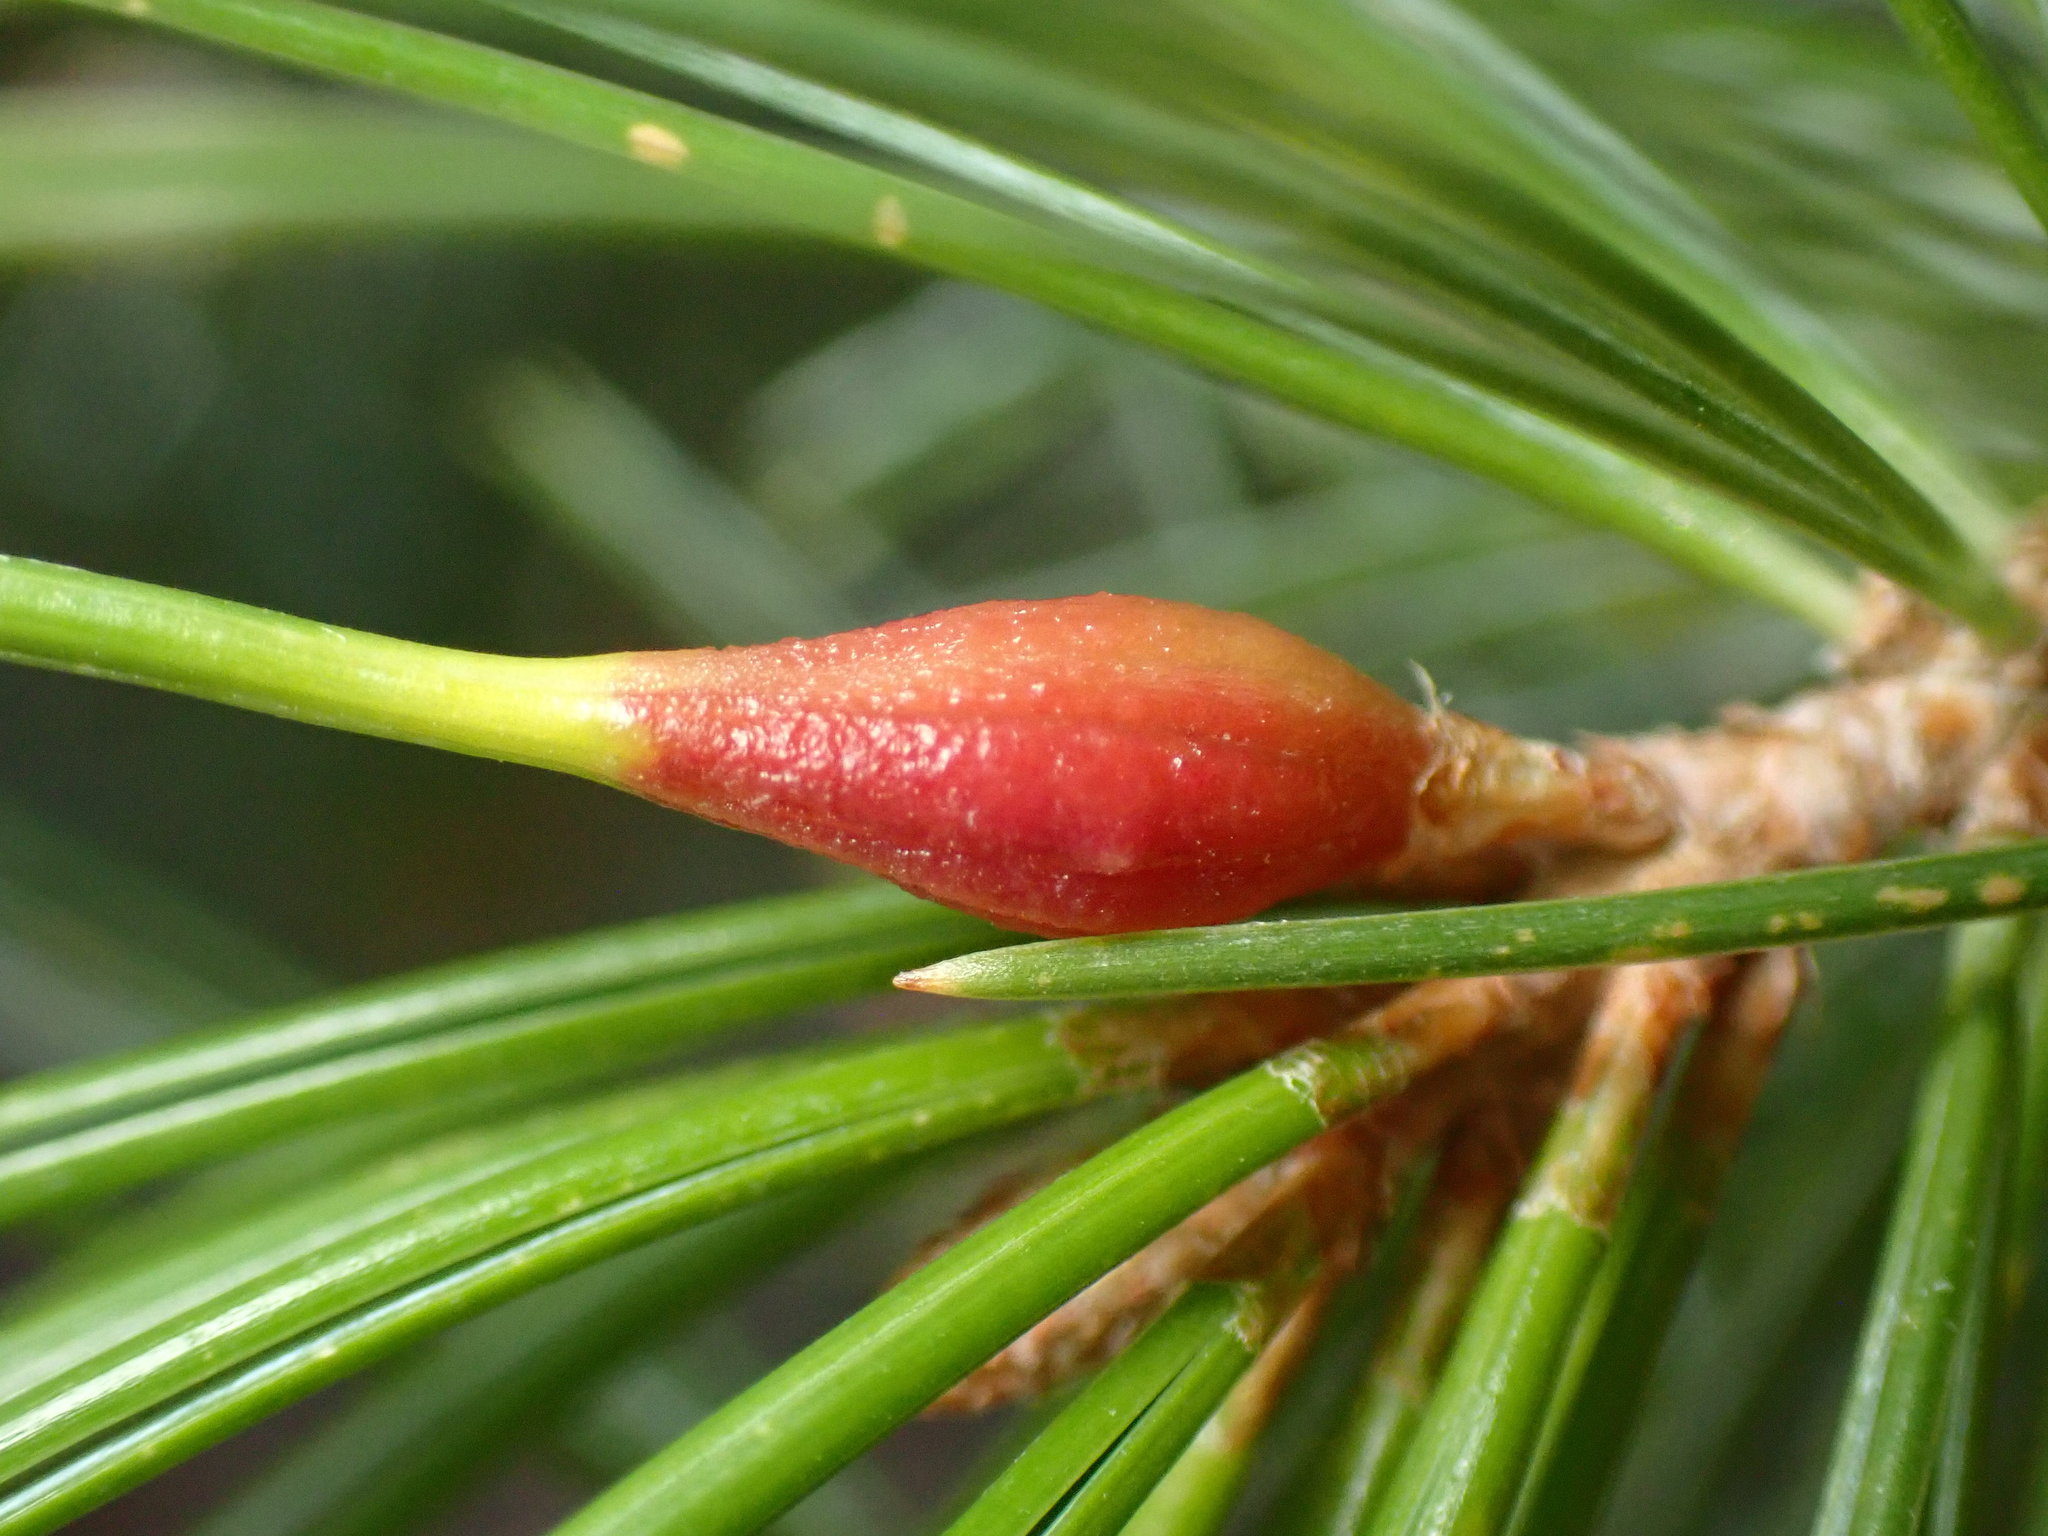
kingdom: Animalia
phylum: Arthropoda
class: Insecta
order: Diptera
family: Cecidomyiidae
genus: Pinyonia
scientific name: Pinyonia edulicola
